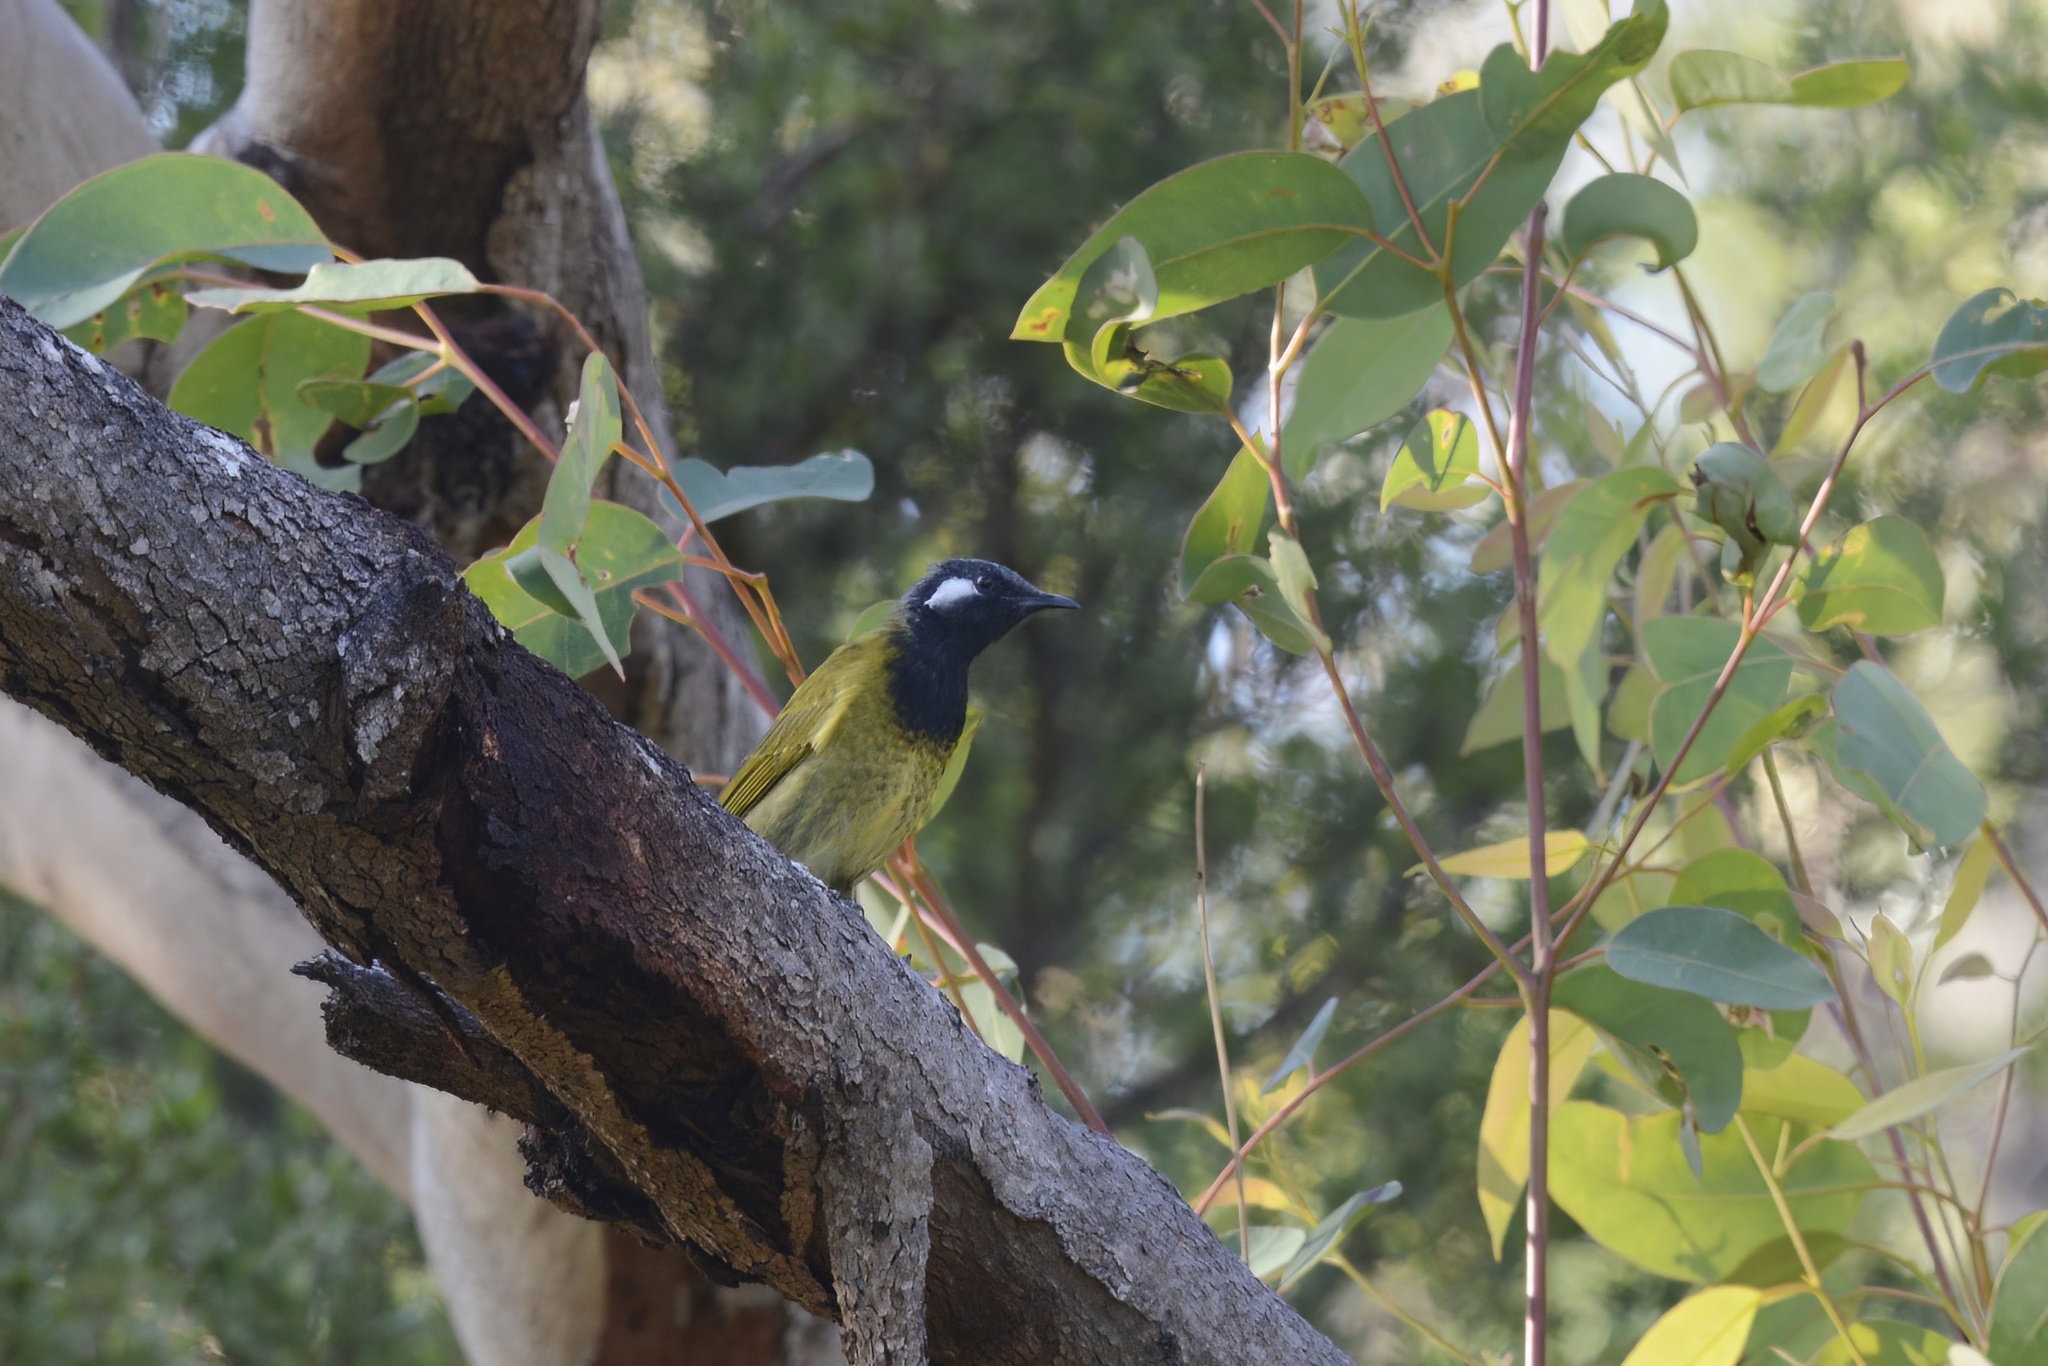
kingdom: Animalia
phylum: Chordata
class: Aves
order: Passeriformes
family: Meliphagidae
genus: Nesoptilotis
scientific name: Nesoptilotis leucotis
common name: White-eared honeyeater
